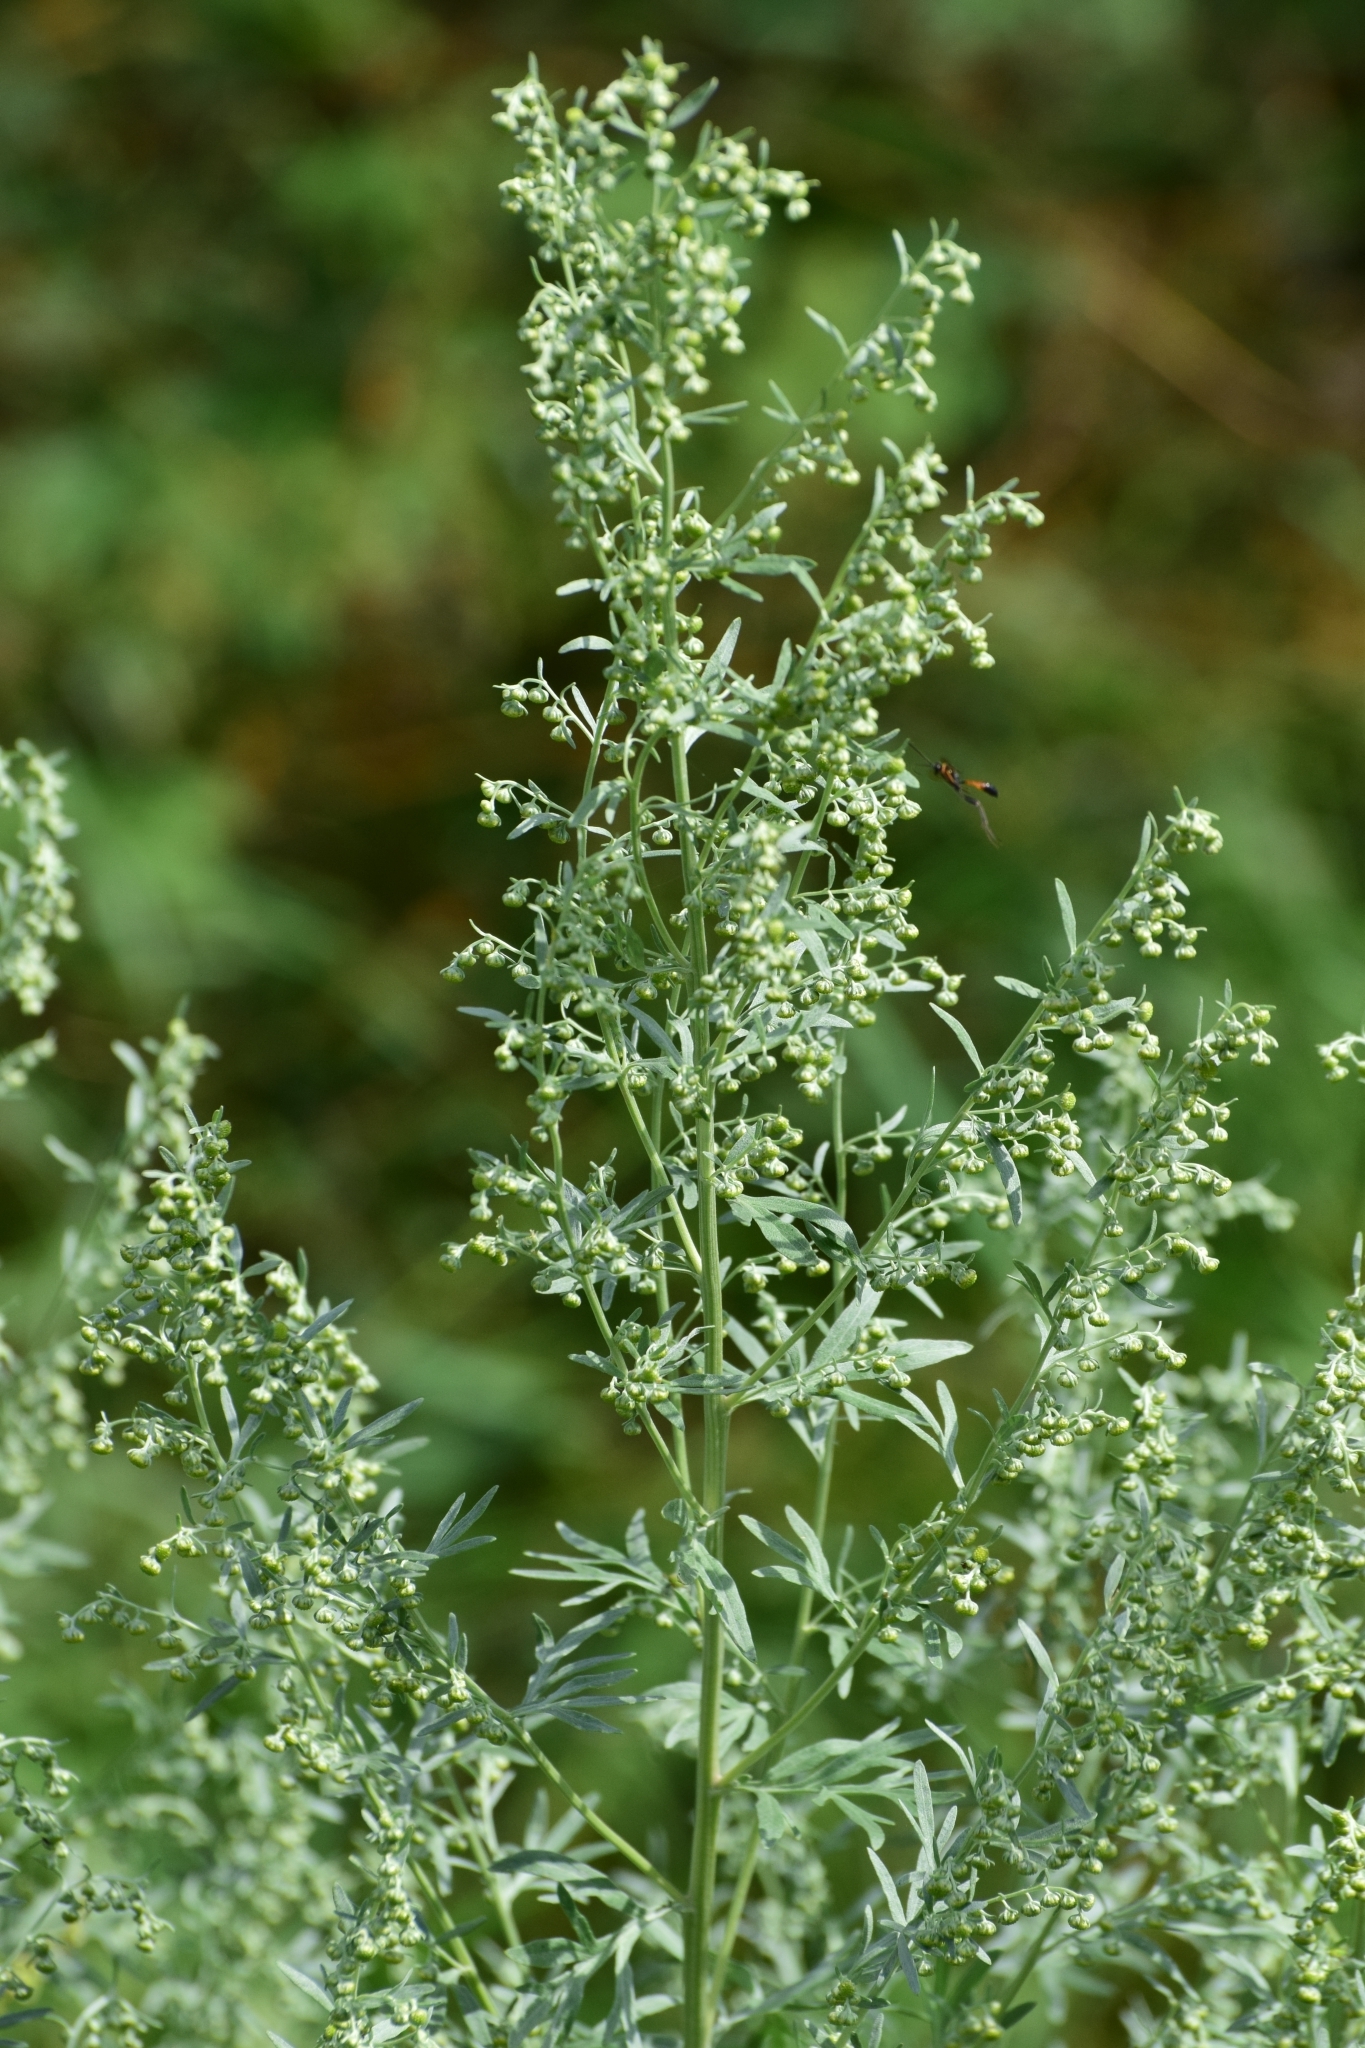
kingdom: Plantae
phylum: Tracheophyta
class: Magnoliopsida
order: Asterales
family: Asteraceae
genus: Artemisia
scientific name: Artemisia absinthium
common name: Wormwood
